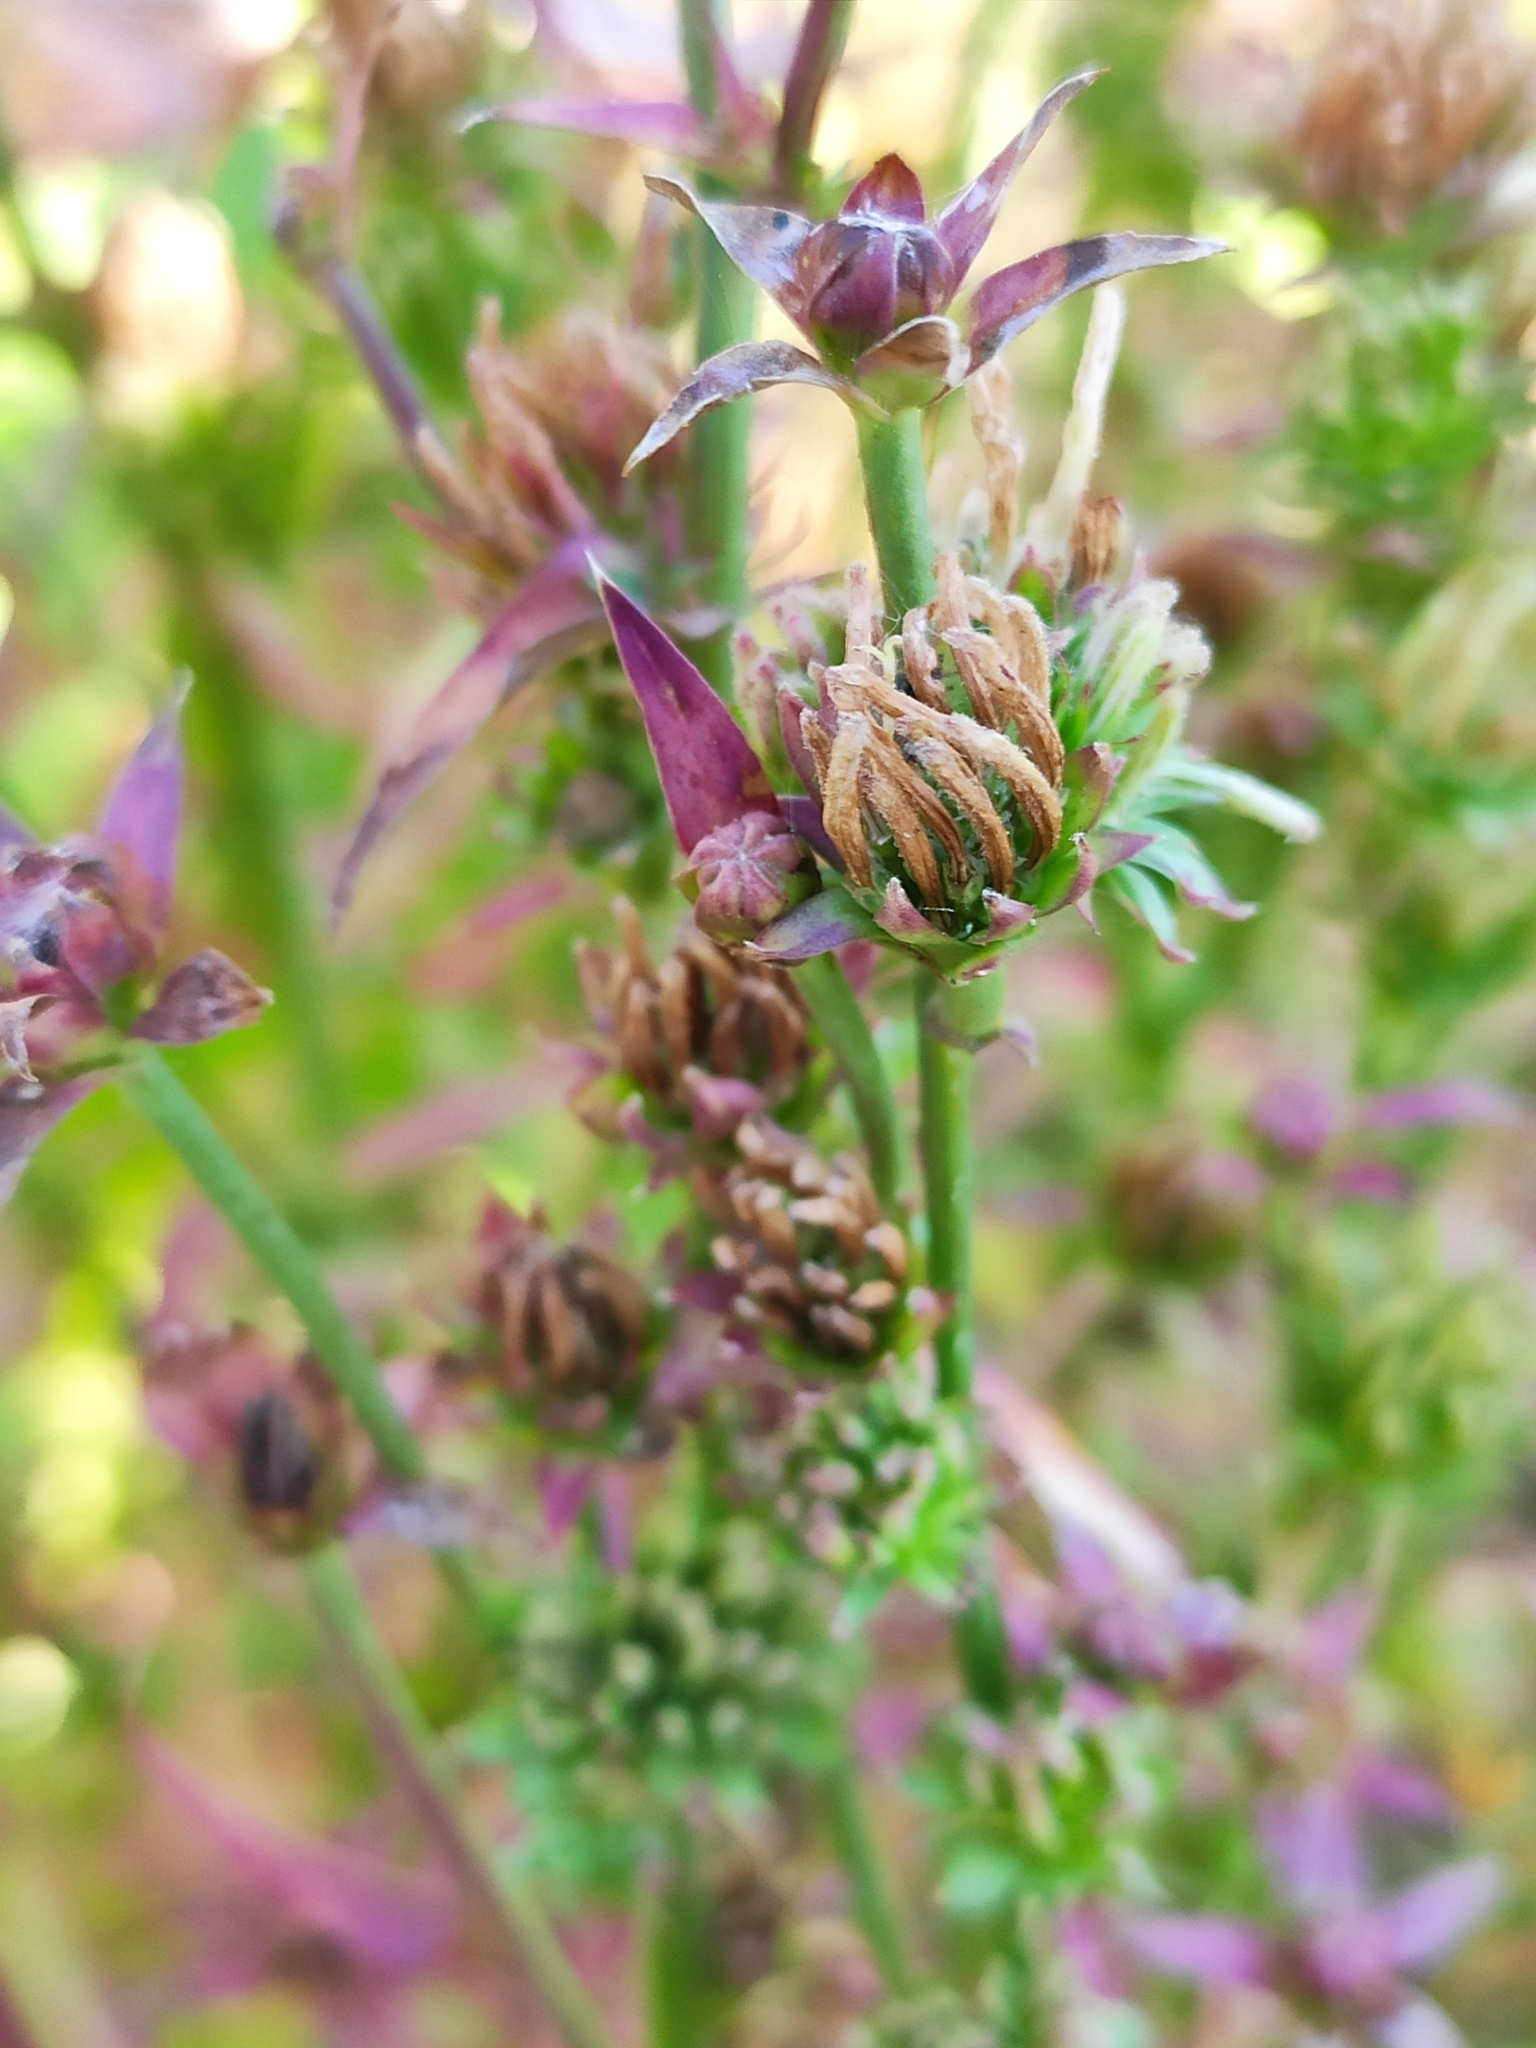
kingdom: Plantae
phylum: Tracheophyta
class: Magnoliopsida
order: Asterales
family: Asteraceae
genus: Cichorium
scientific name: Cichorium intybus
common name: Chicory
